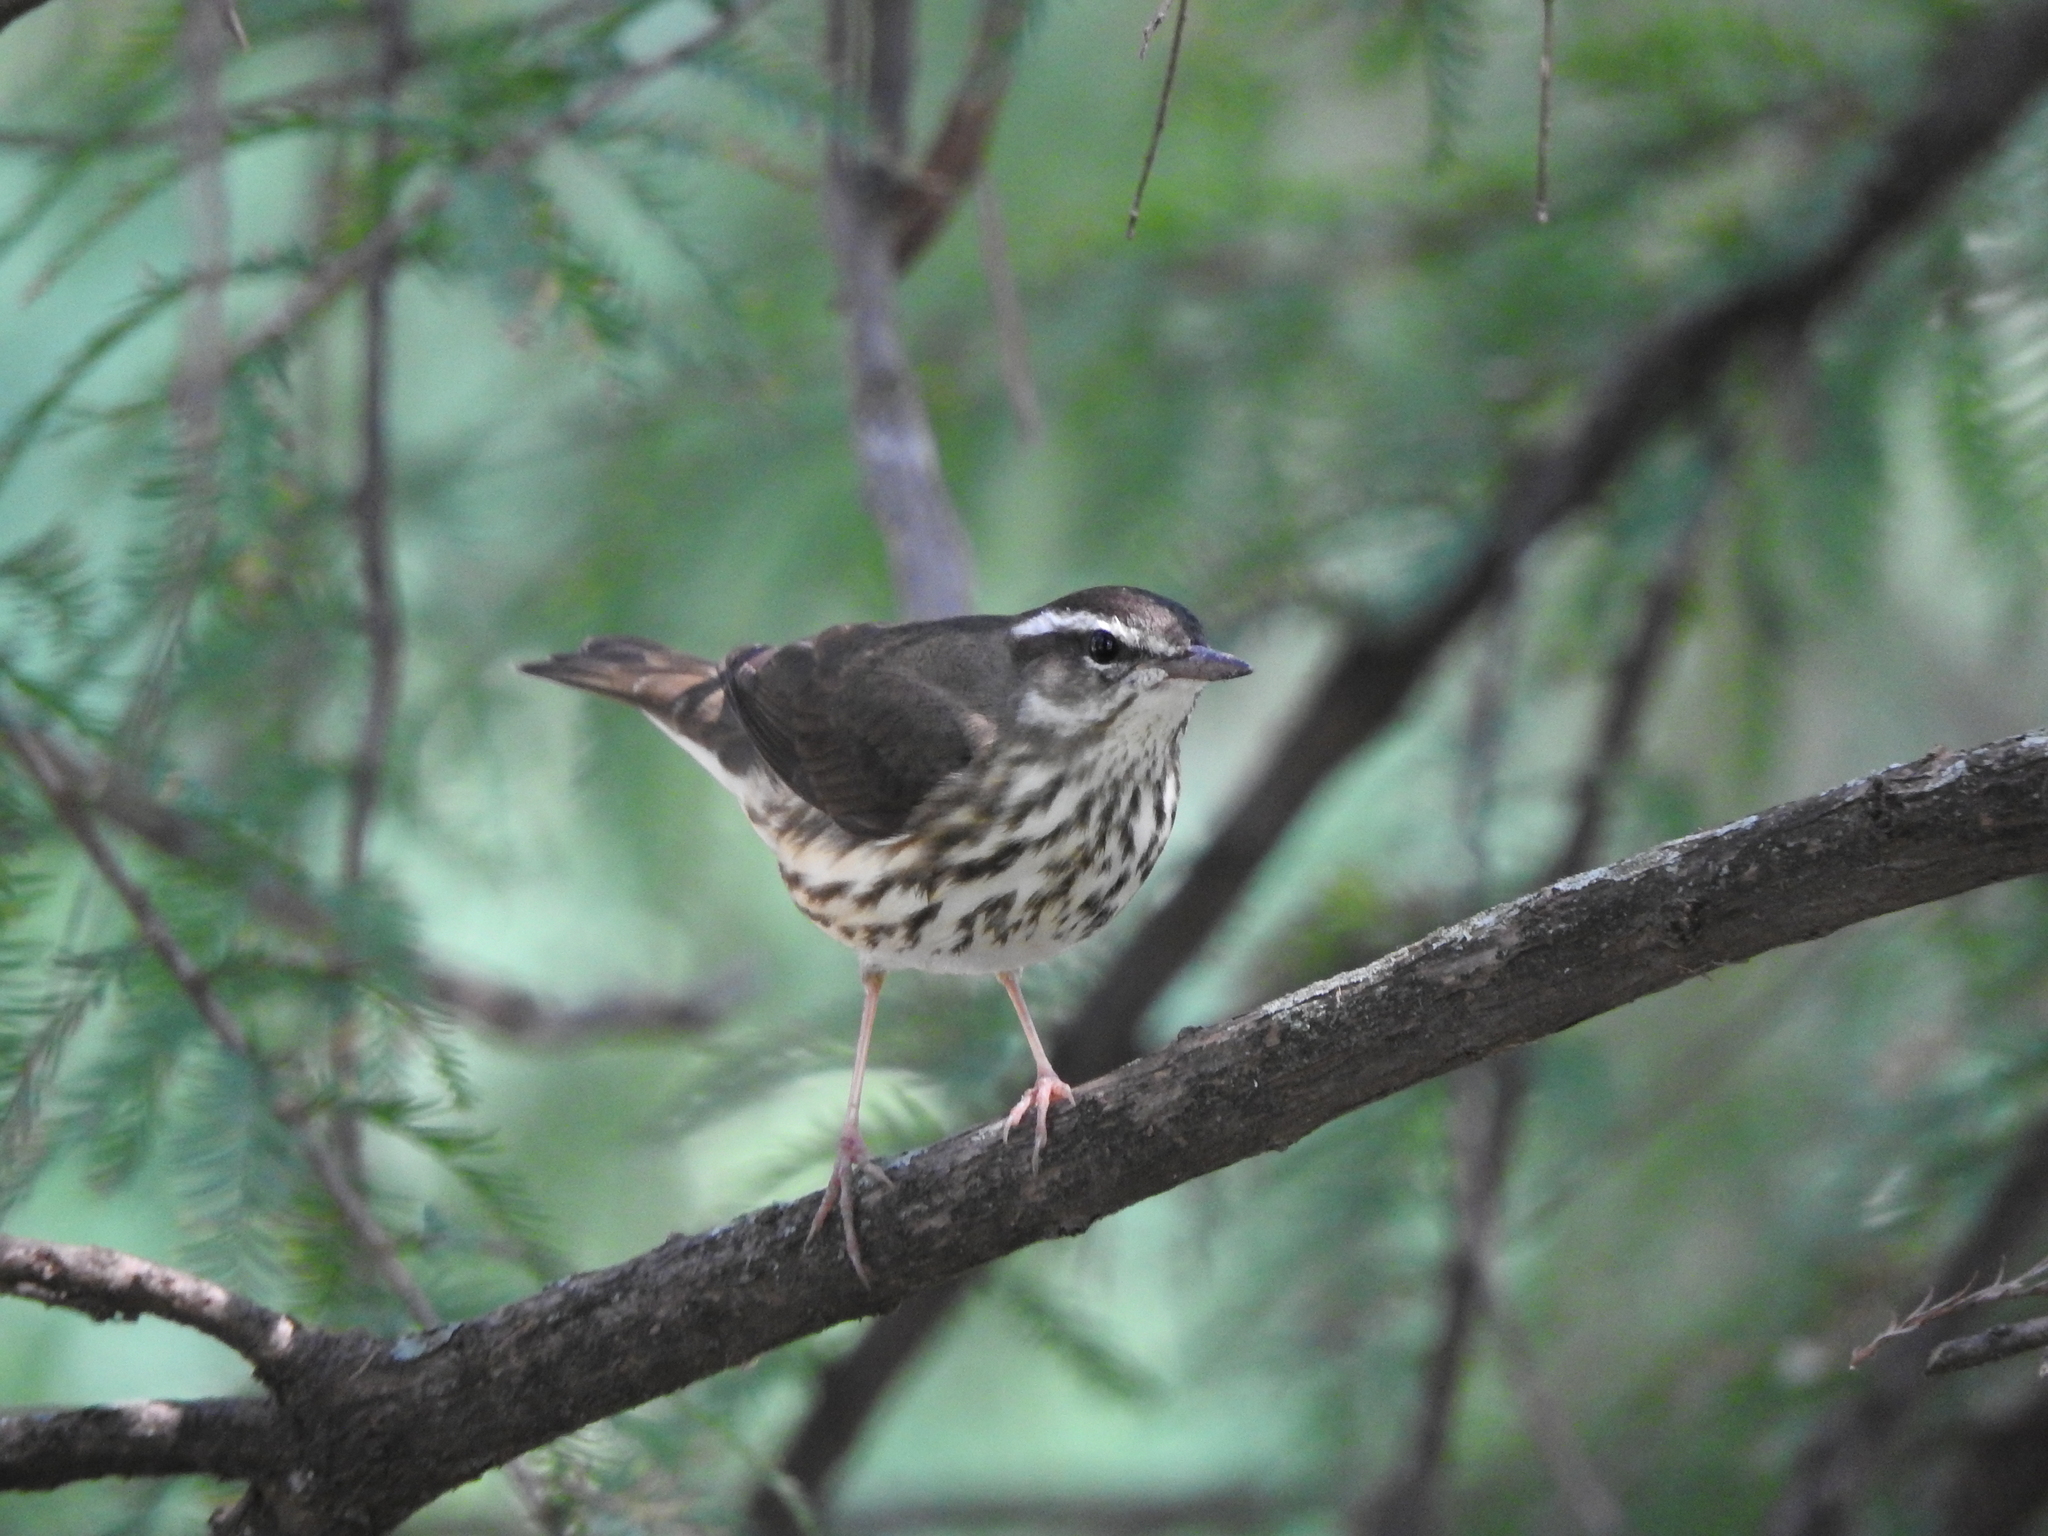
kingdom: Animalia
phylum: Chordata
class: Aves
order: Passeriformes
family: Parulidae
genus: Parkesia
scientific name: Parkesia motacilla
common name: Louisiana waterthrush
